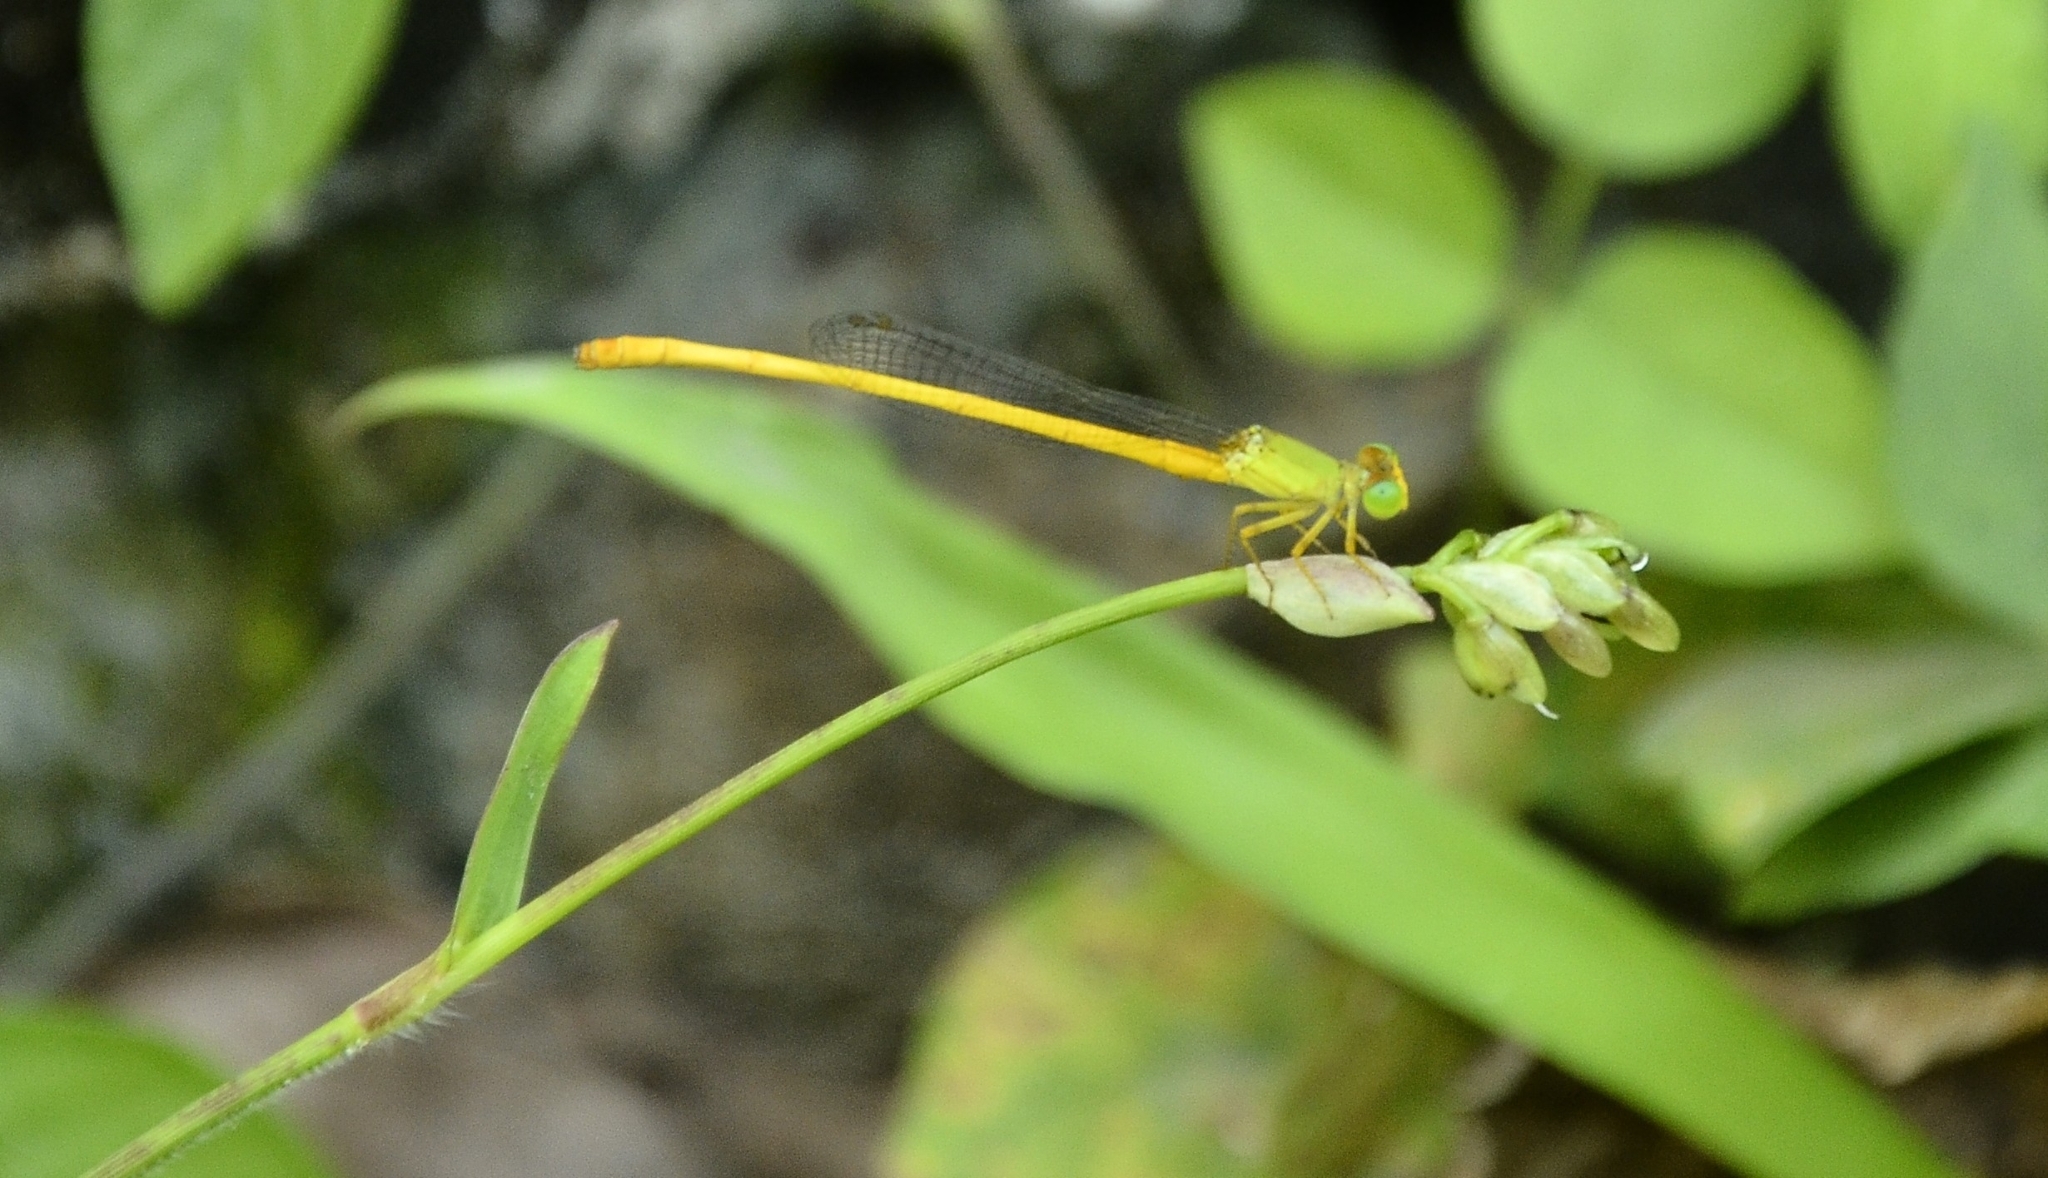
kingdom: Animalia
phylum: Arthropoda
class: Insecta
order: Odonata
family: Coenagrionidae
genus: Ceriagrion
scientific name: Ceriagrion coromandelianum
